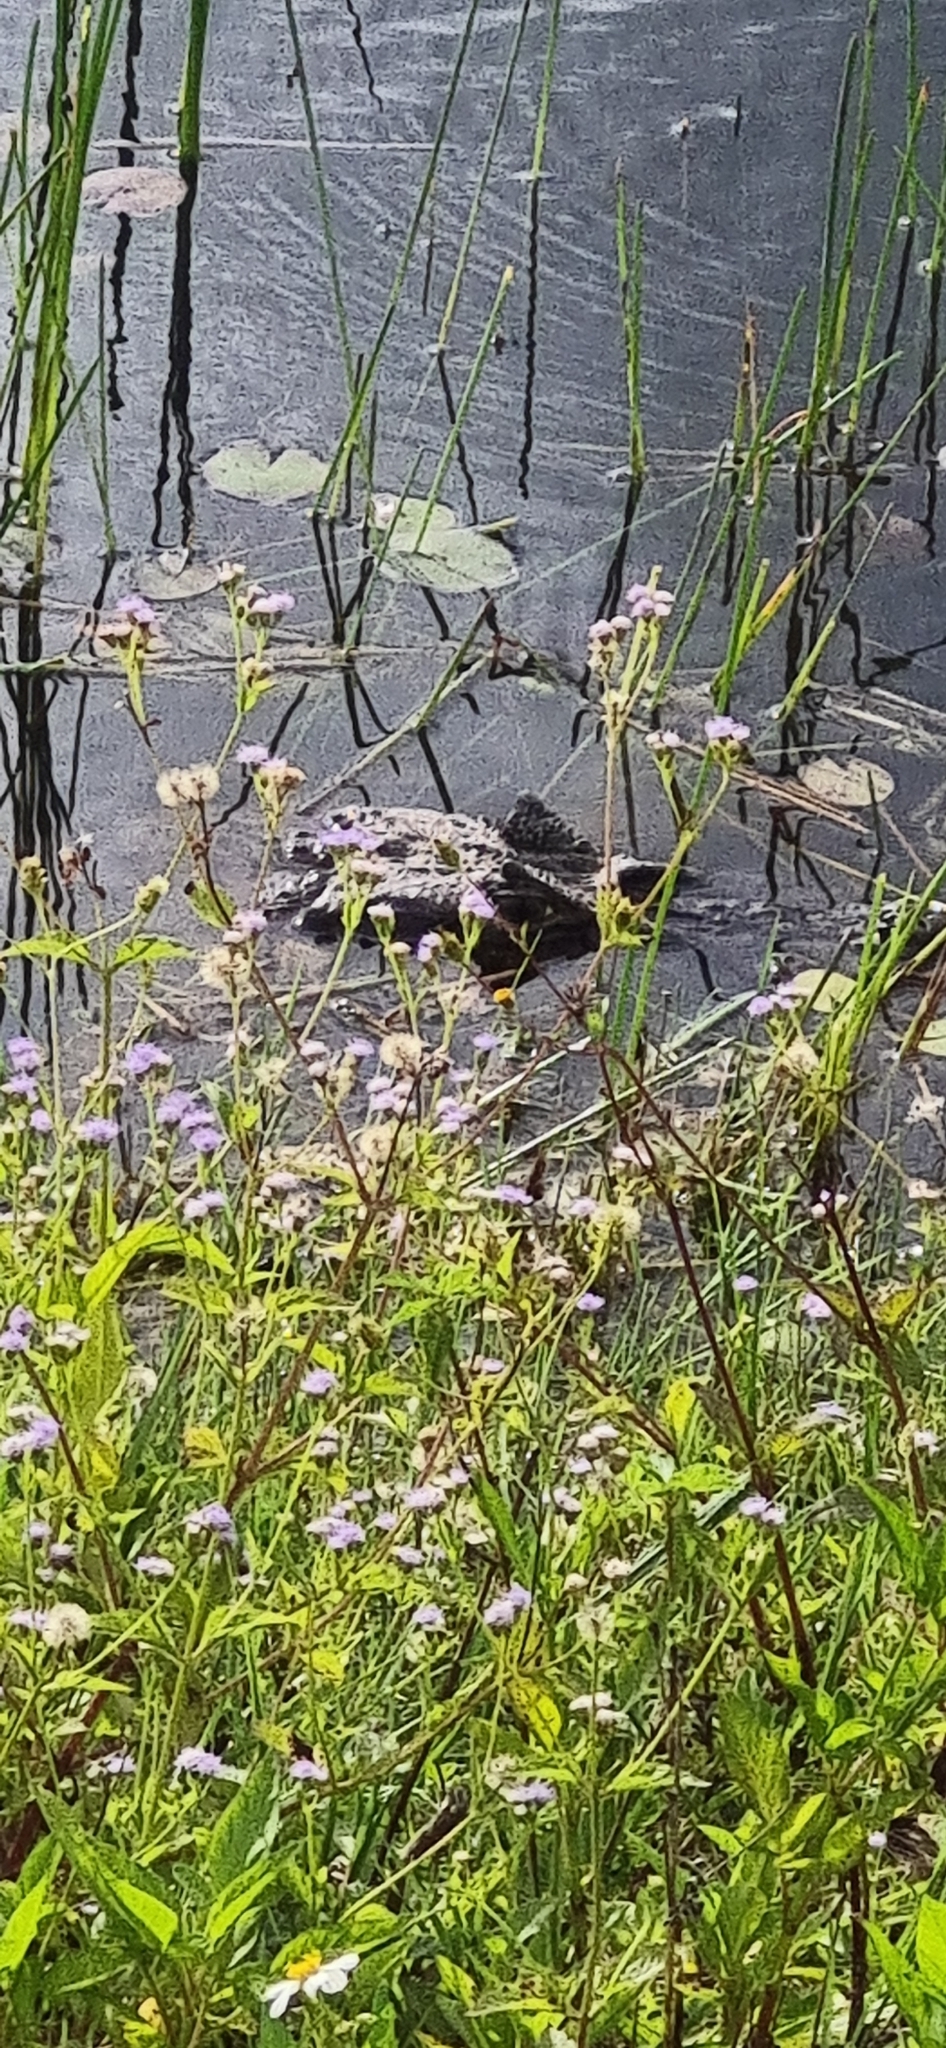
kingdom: Animalia
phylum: Chordata
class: Crocodylia
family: Alligatoridae
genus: Caiman
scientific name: Caiman latirostris
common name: Broad-snouted caiman
